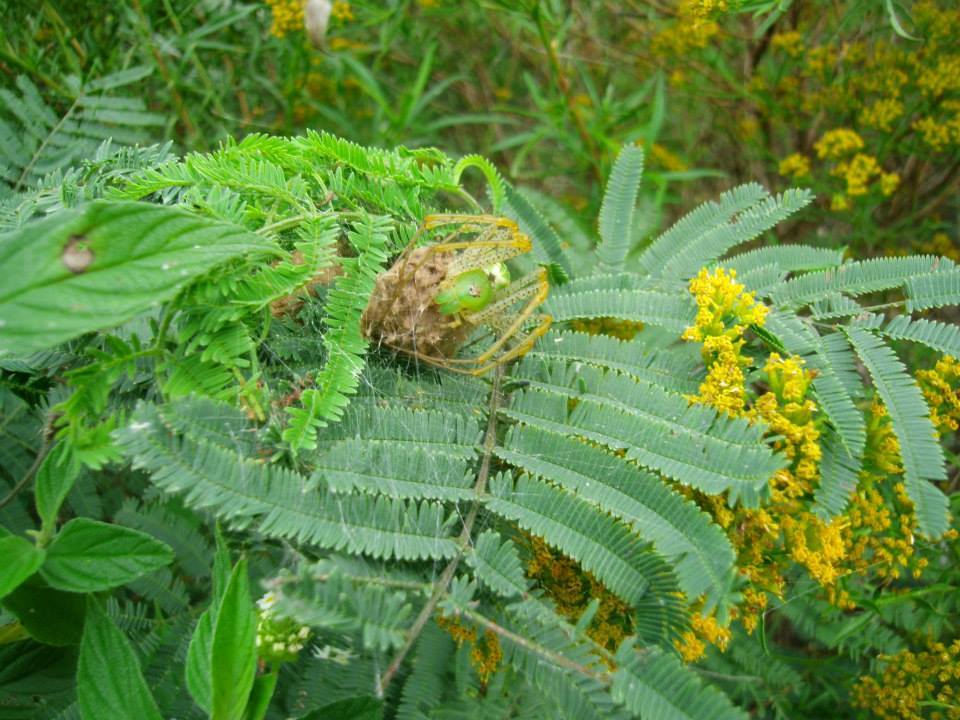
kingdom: Animalia
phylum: Arthropoda
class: Arachnida
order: Araneae
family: Oxyopidae
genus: Peucetia
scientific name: Peucetia viridans
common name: Lynx spiders
